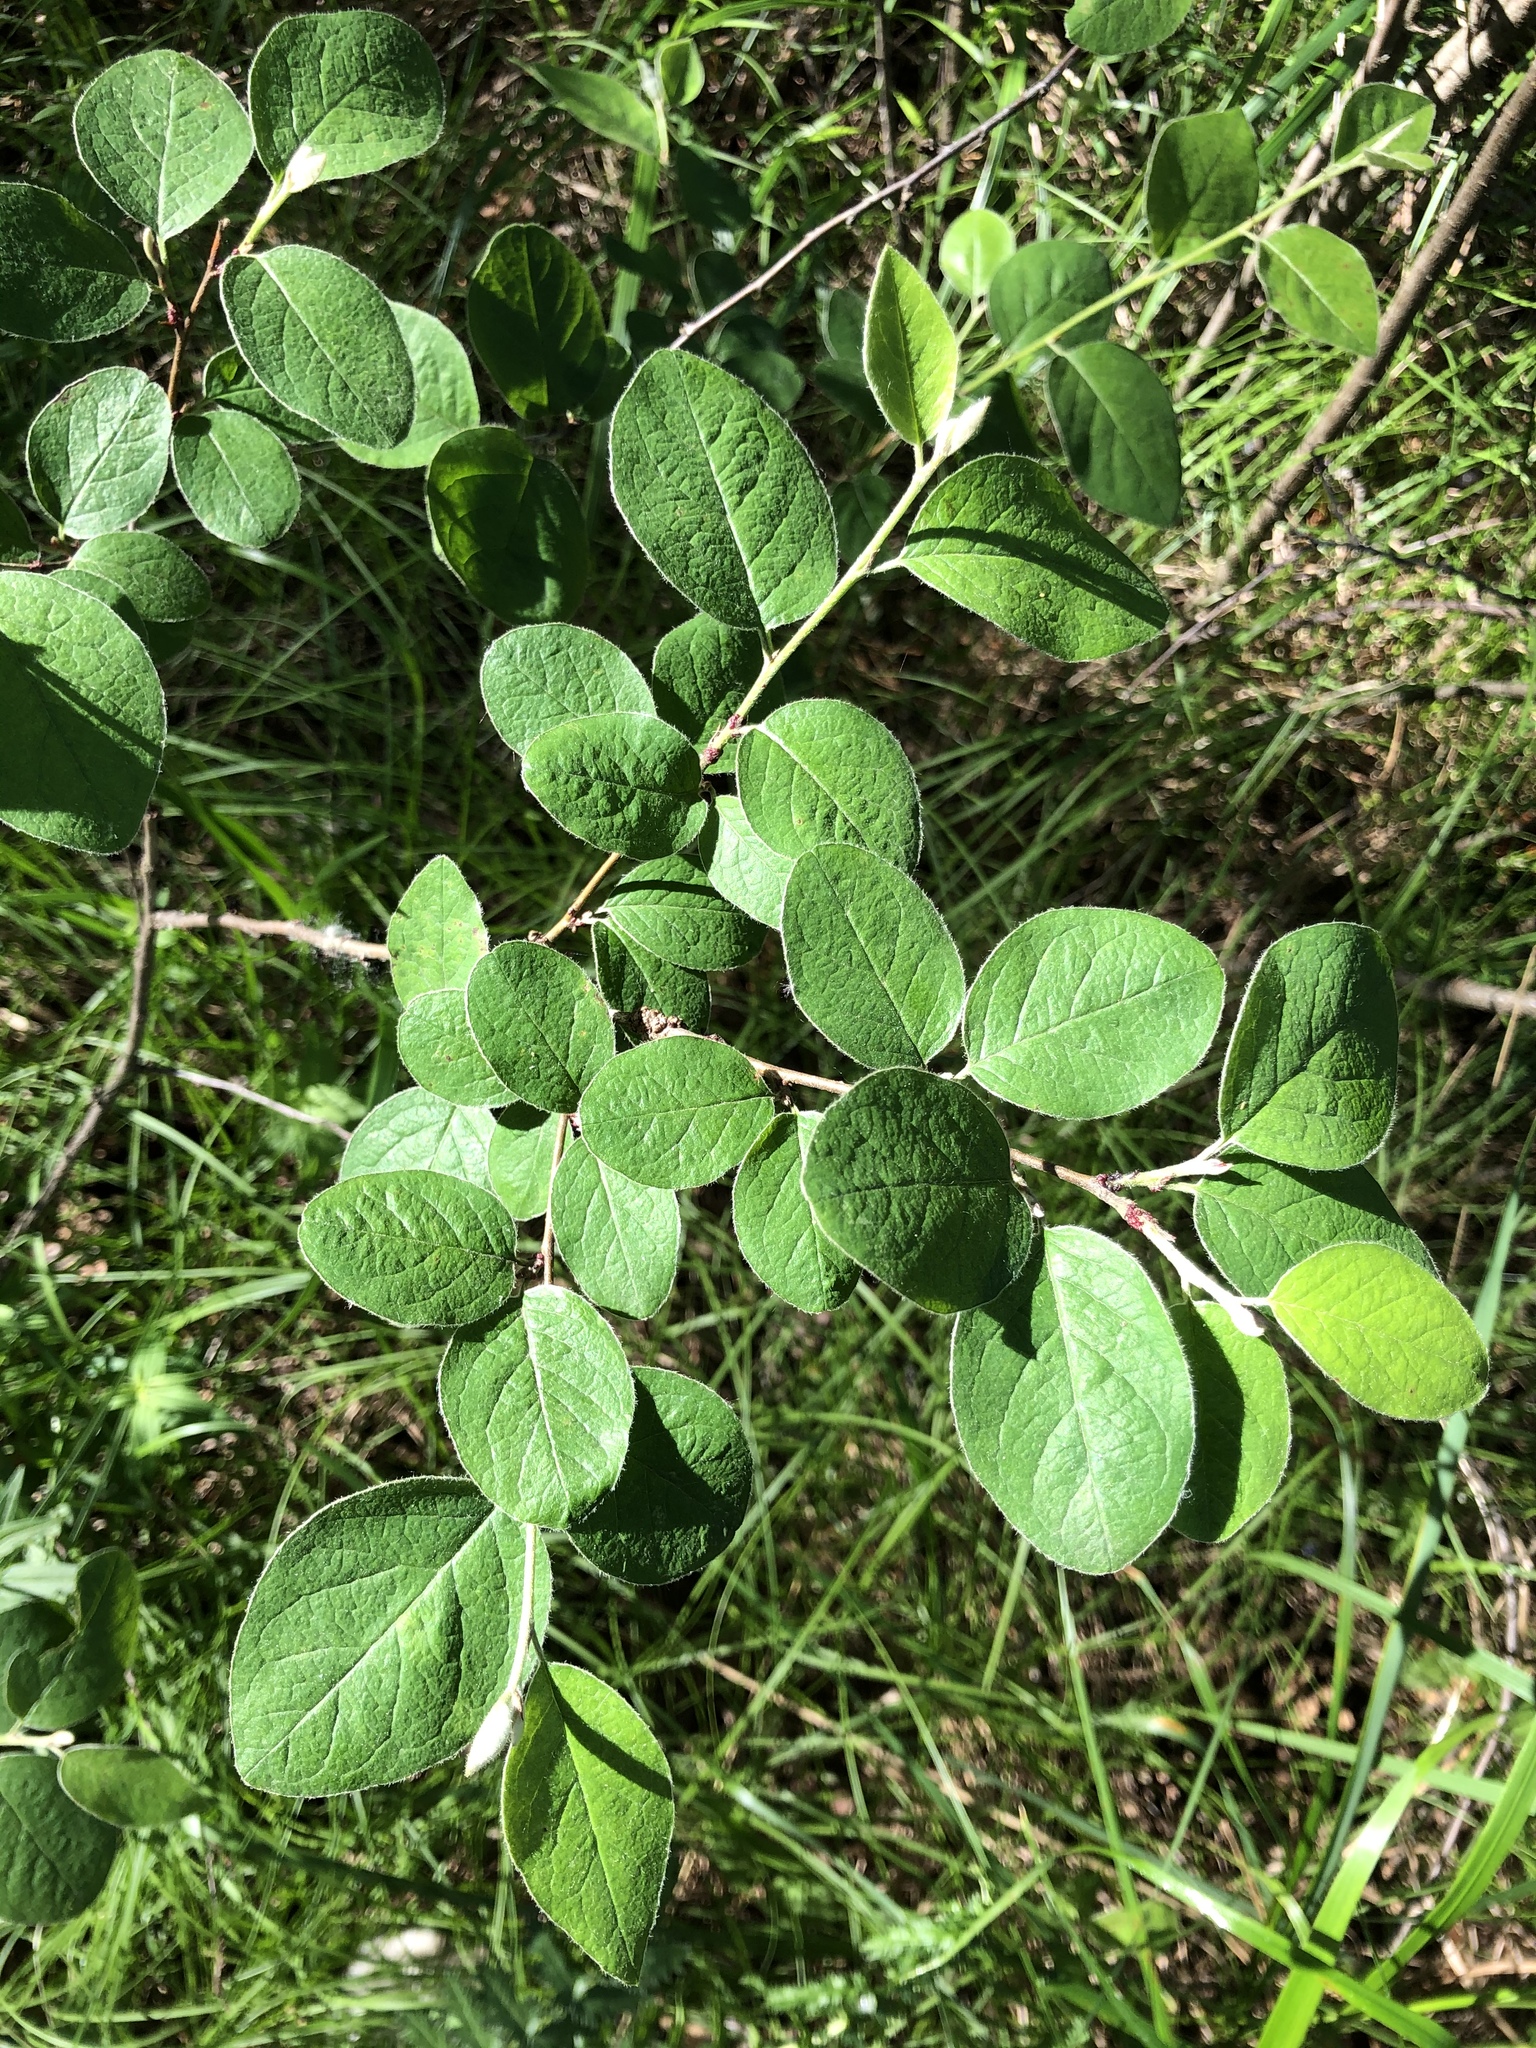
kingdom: Plantae
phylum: Tracheophyta
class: Magnoliopsida
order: Rosales
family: Rosaceae
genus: Cotoneaster
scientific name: Cotoneaster melanocarpus
